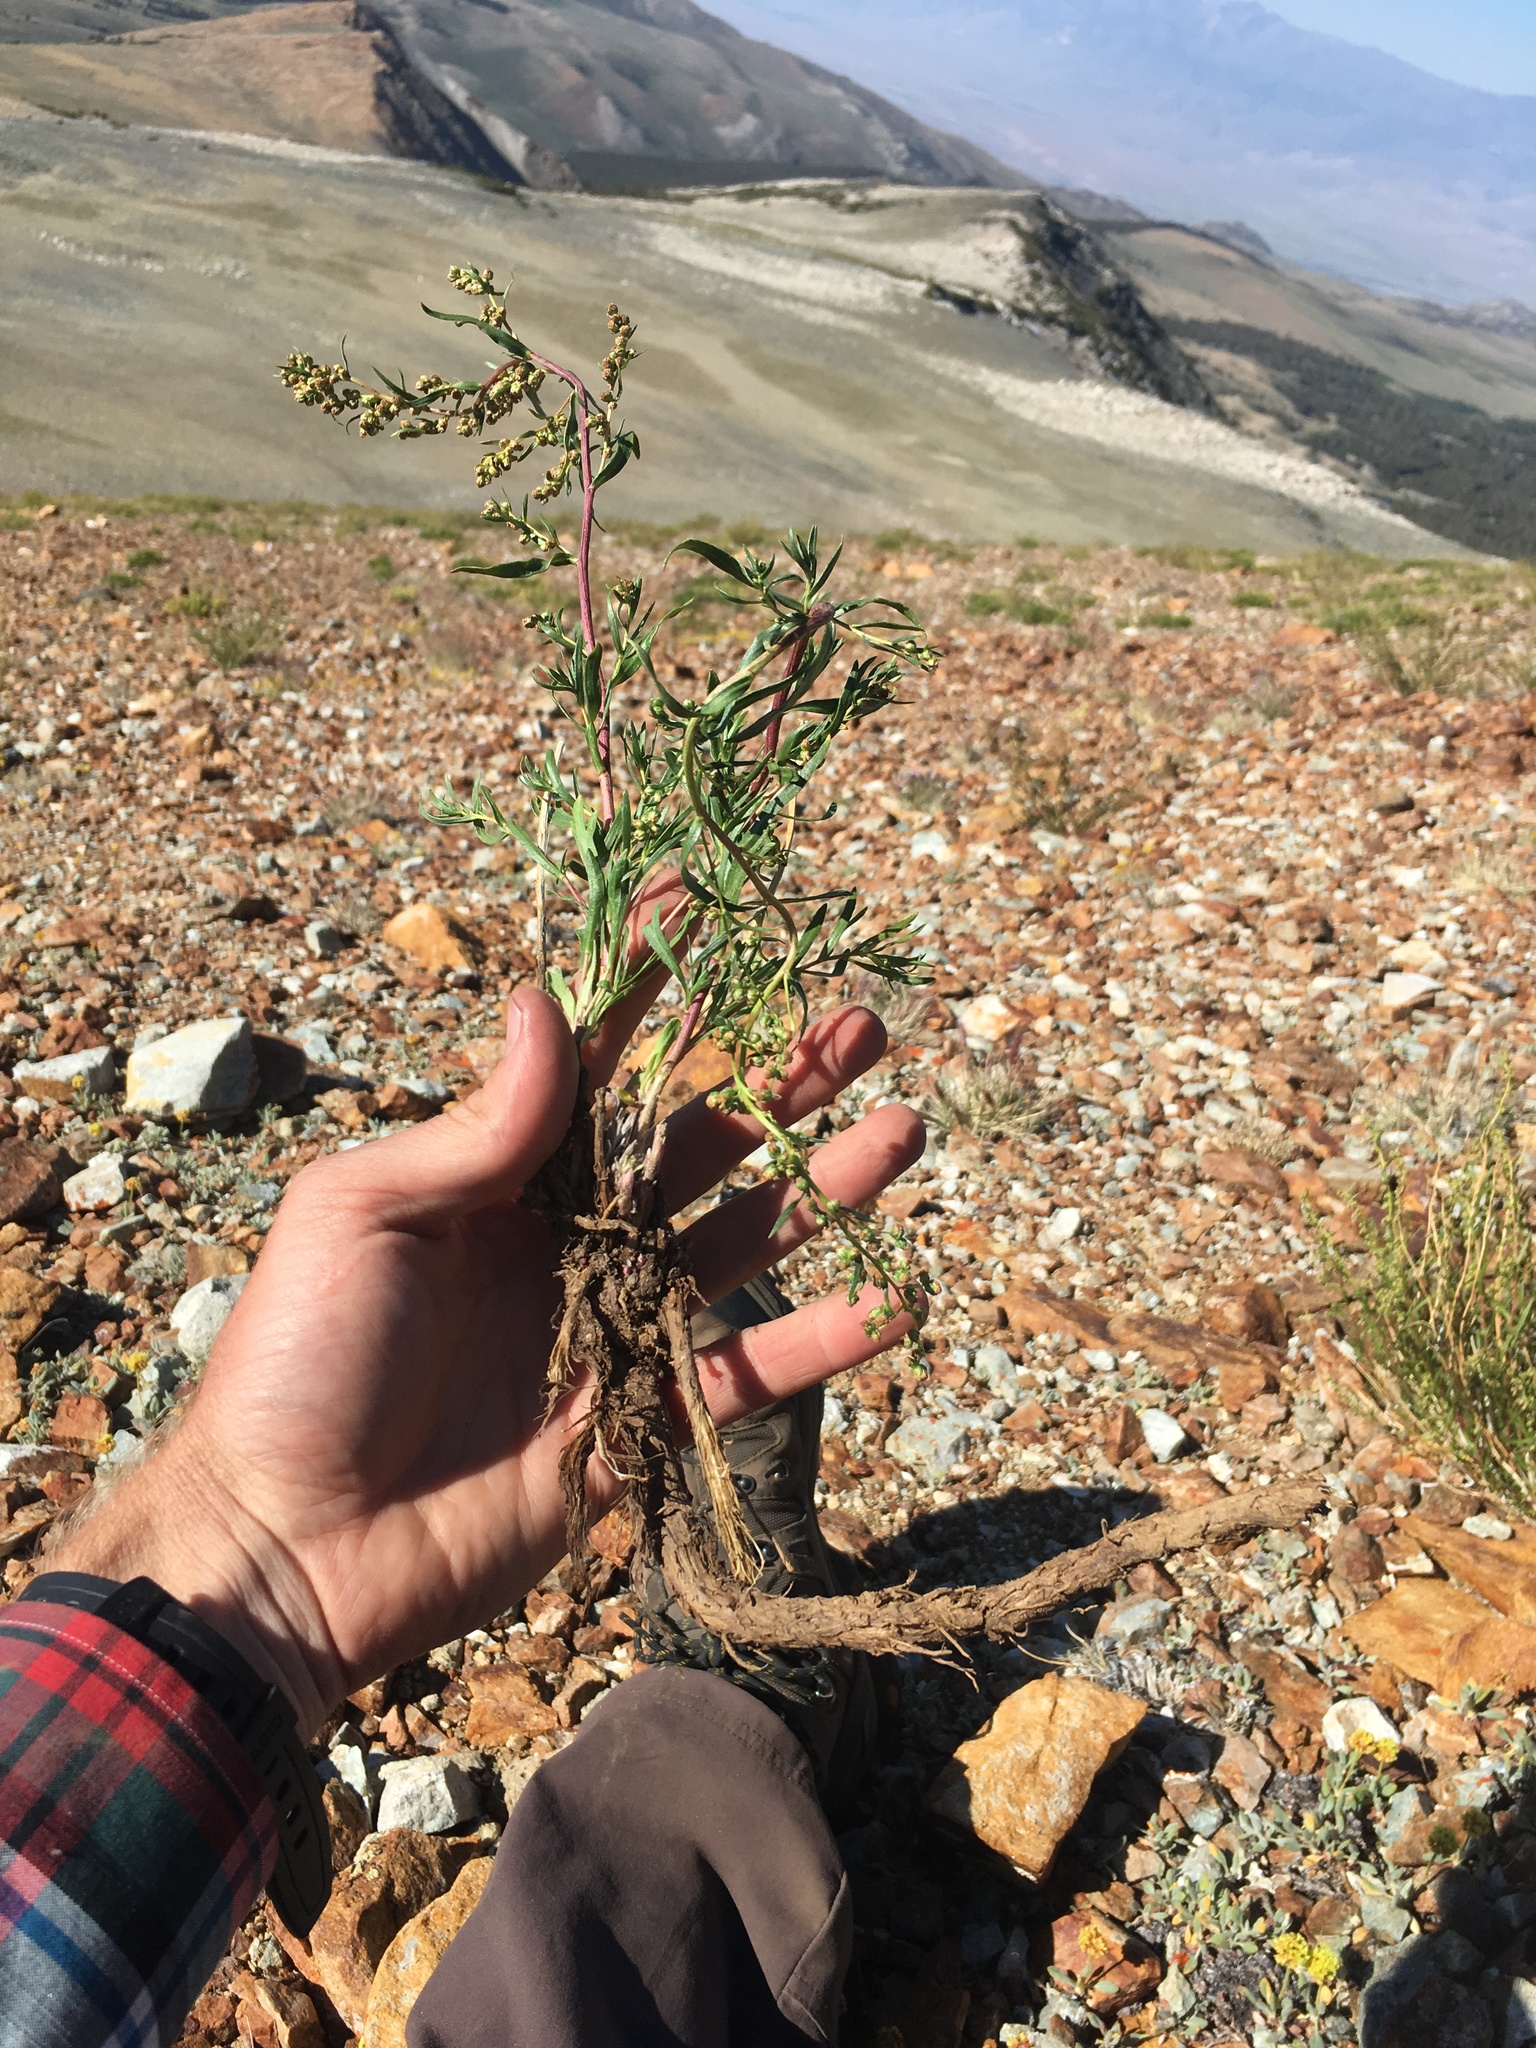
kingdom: Plantae
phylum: Tracheophyta
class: Magnoliopsida
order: Asterales
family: Asteraceae
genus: Artemisia
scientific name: Artemisia dracunculus
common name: Tarragon
